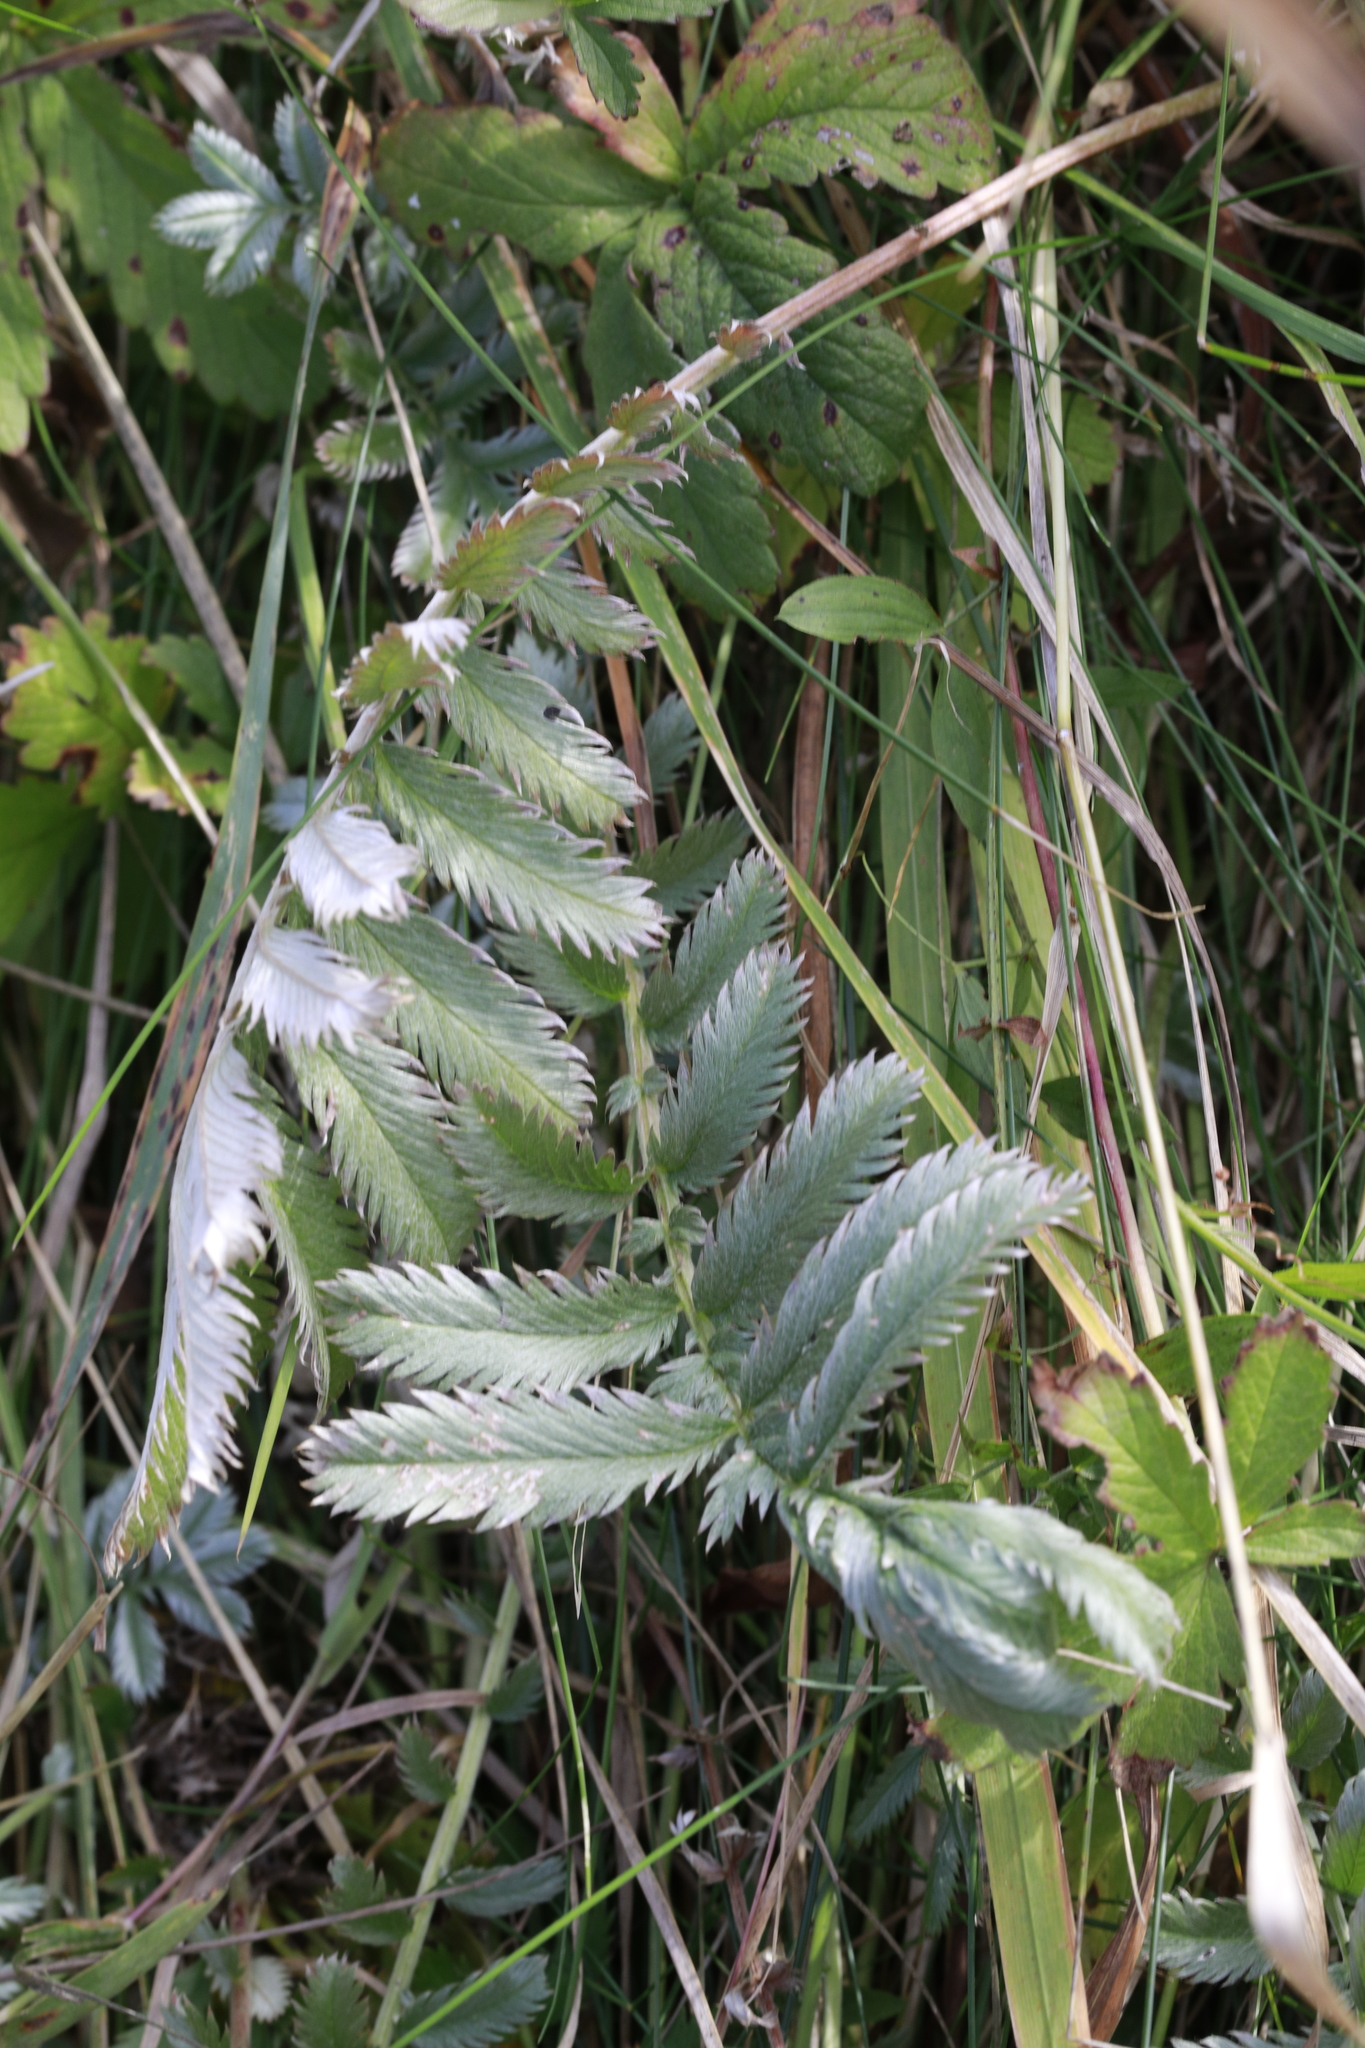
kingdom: Plantae
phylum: Tracheophyta
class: Magnoliopsida
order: Rosales
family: Rosaceae
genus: Argentina
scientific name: Argentina anserina
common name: Common silverweed
